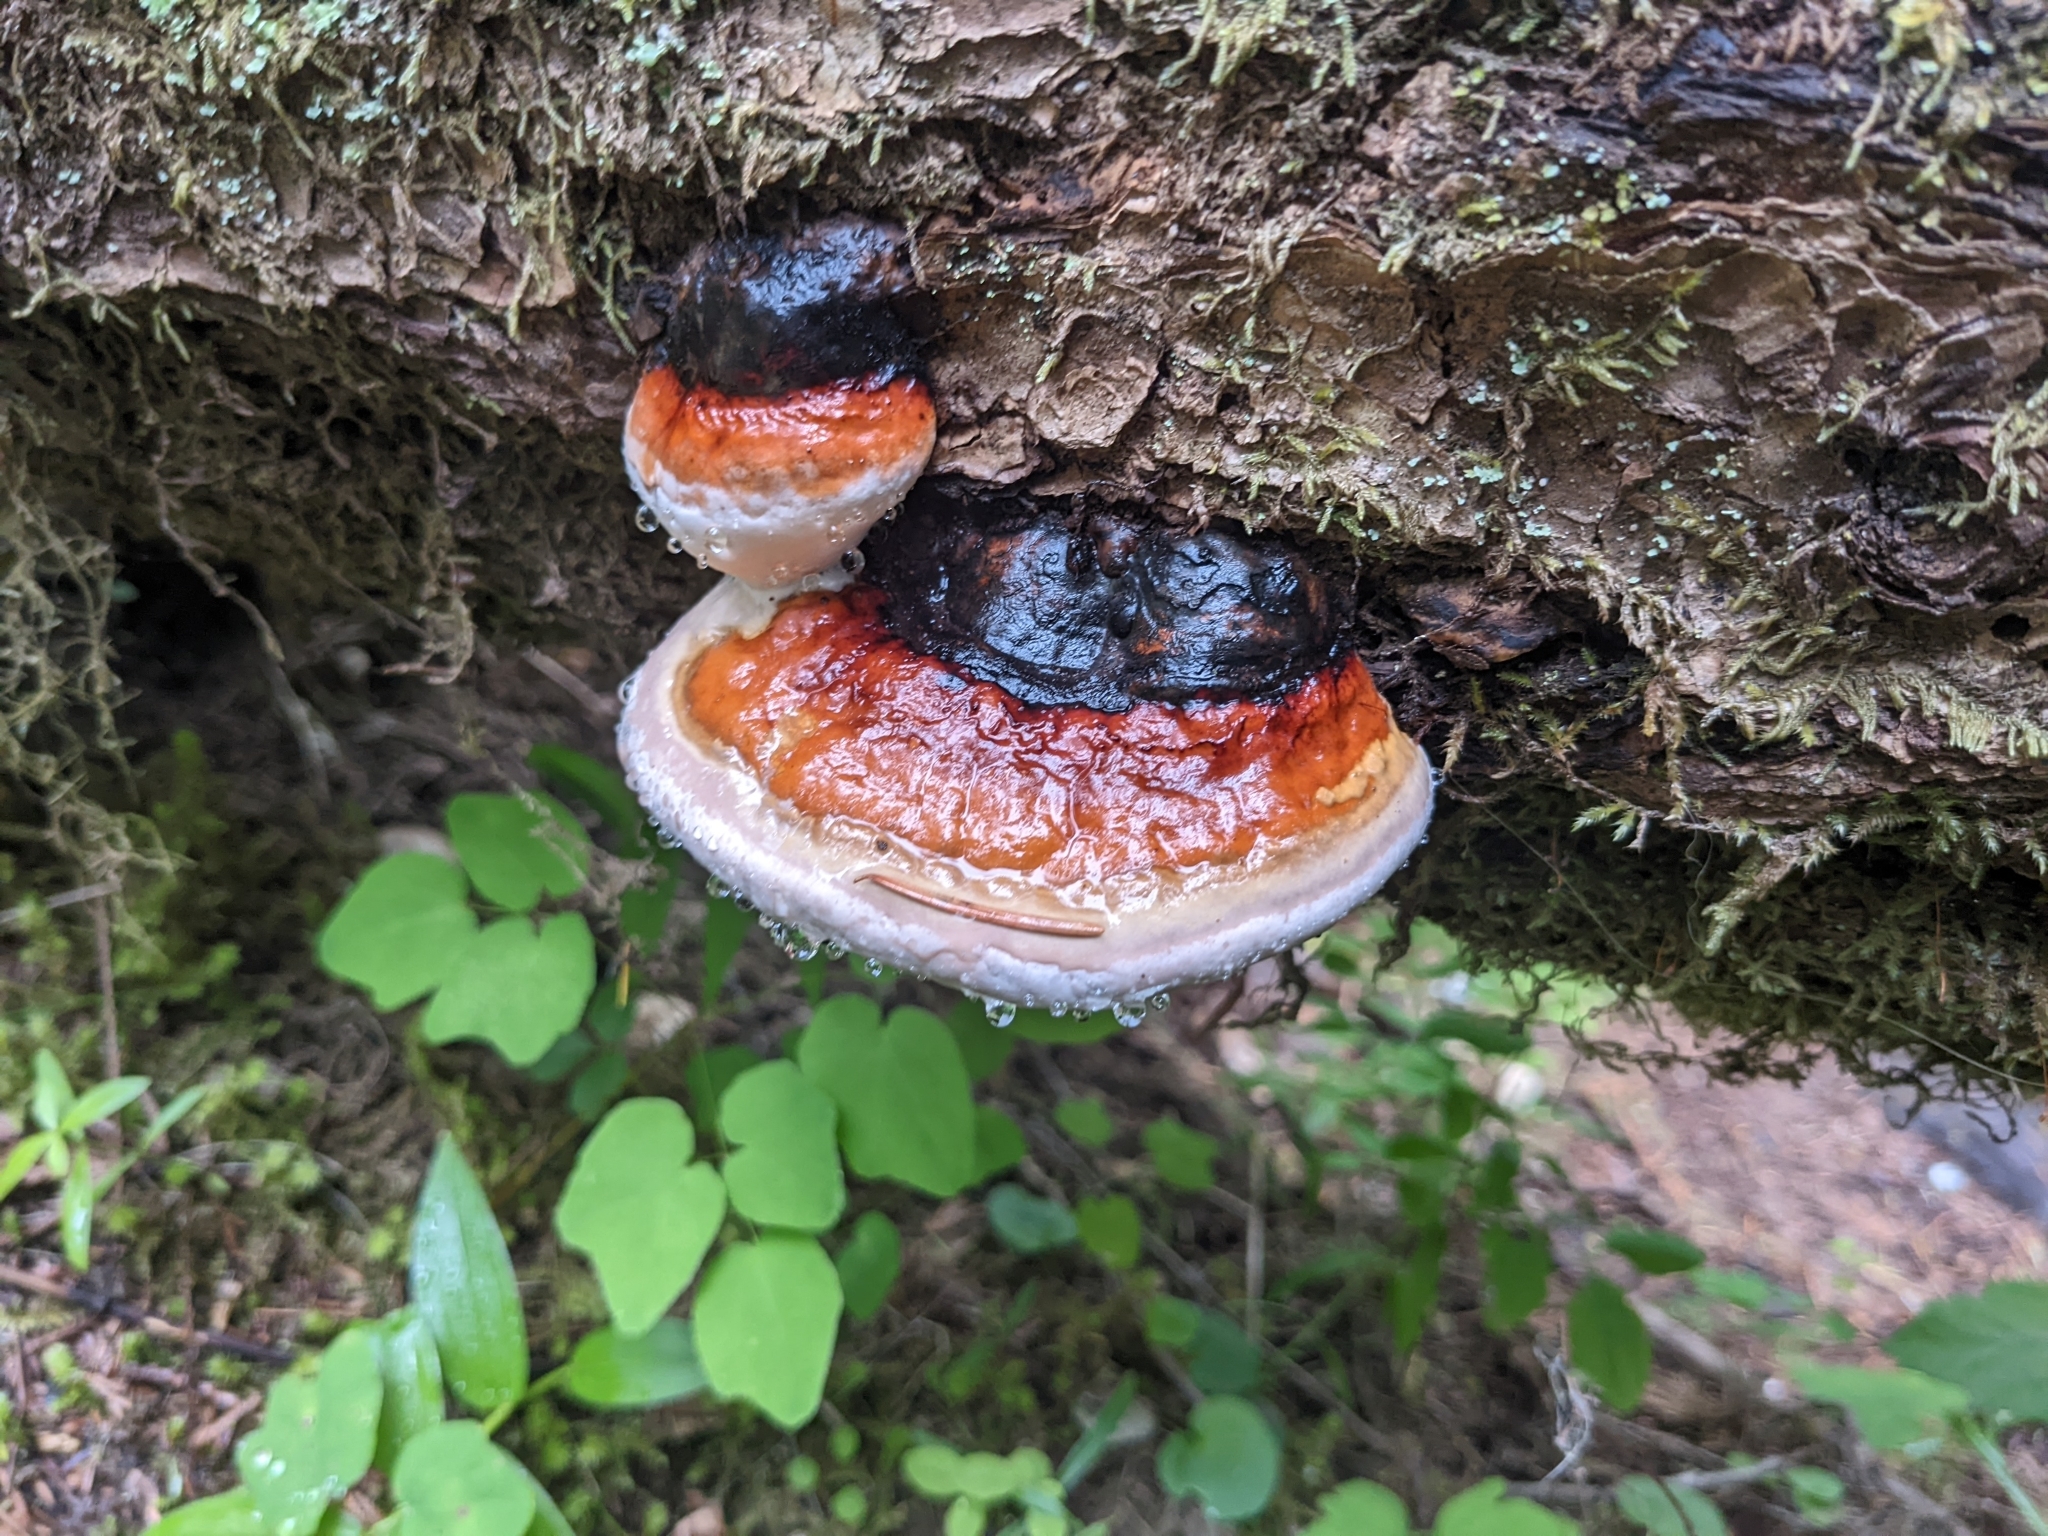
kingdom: Fungi
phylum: Basidiomycota
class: Agaricomycetes
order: Polyporales
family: Fomitopsidaceae
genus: Fomitopsis
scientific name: Fomitopsis mounceae
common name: Northern red belt
